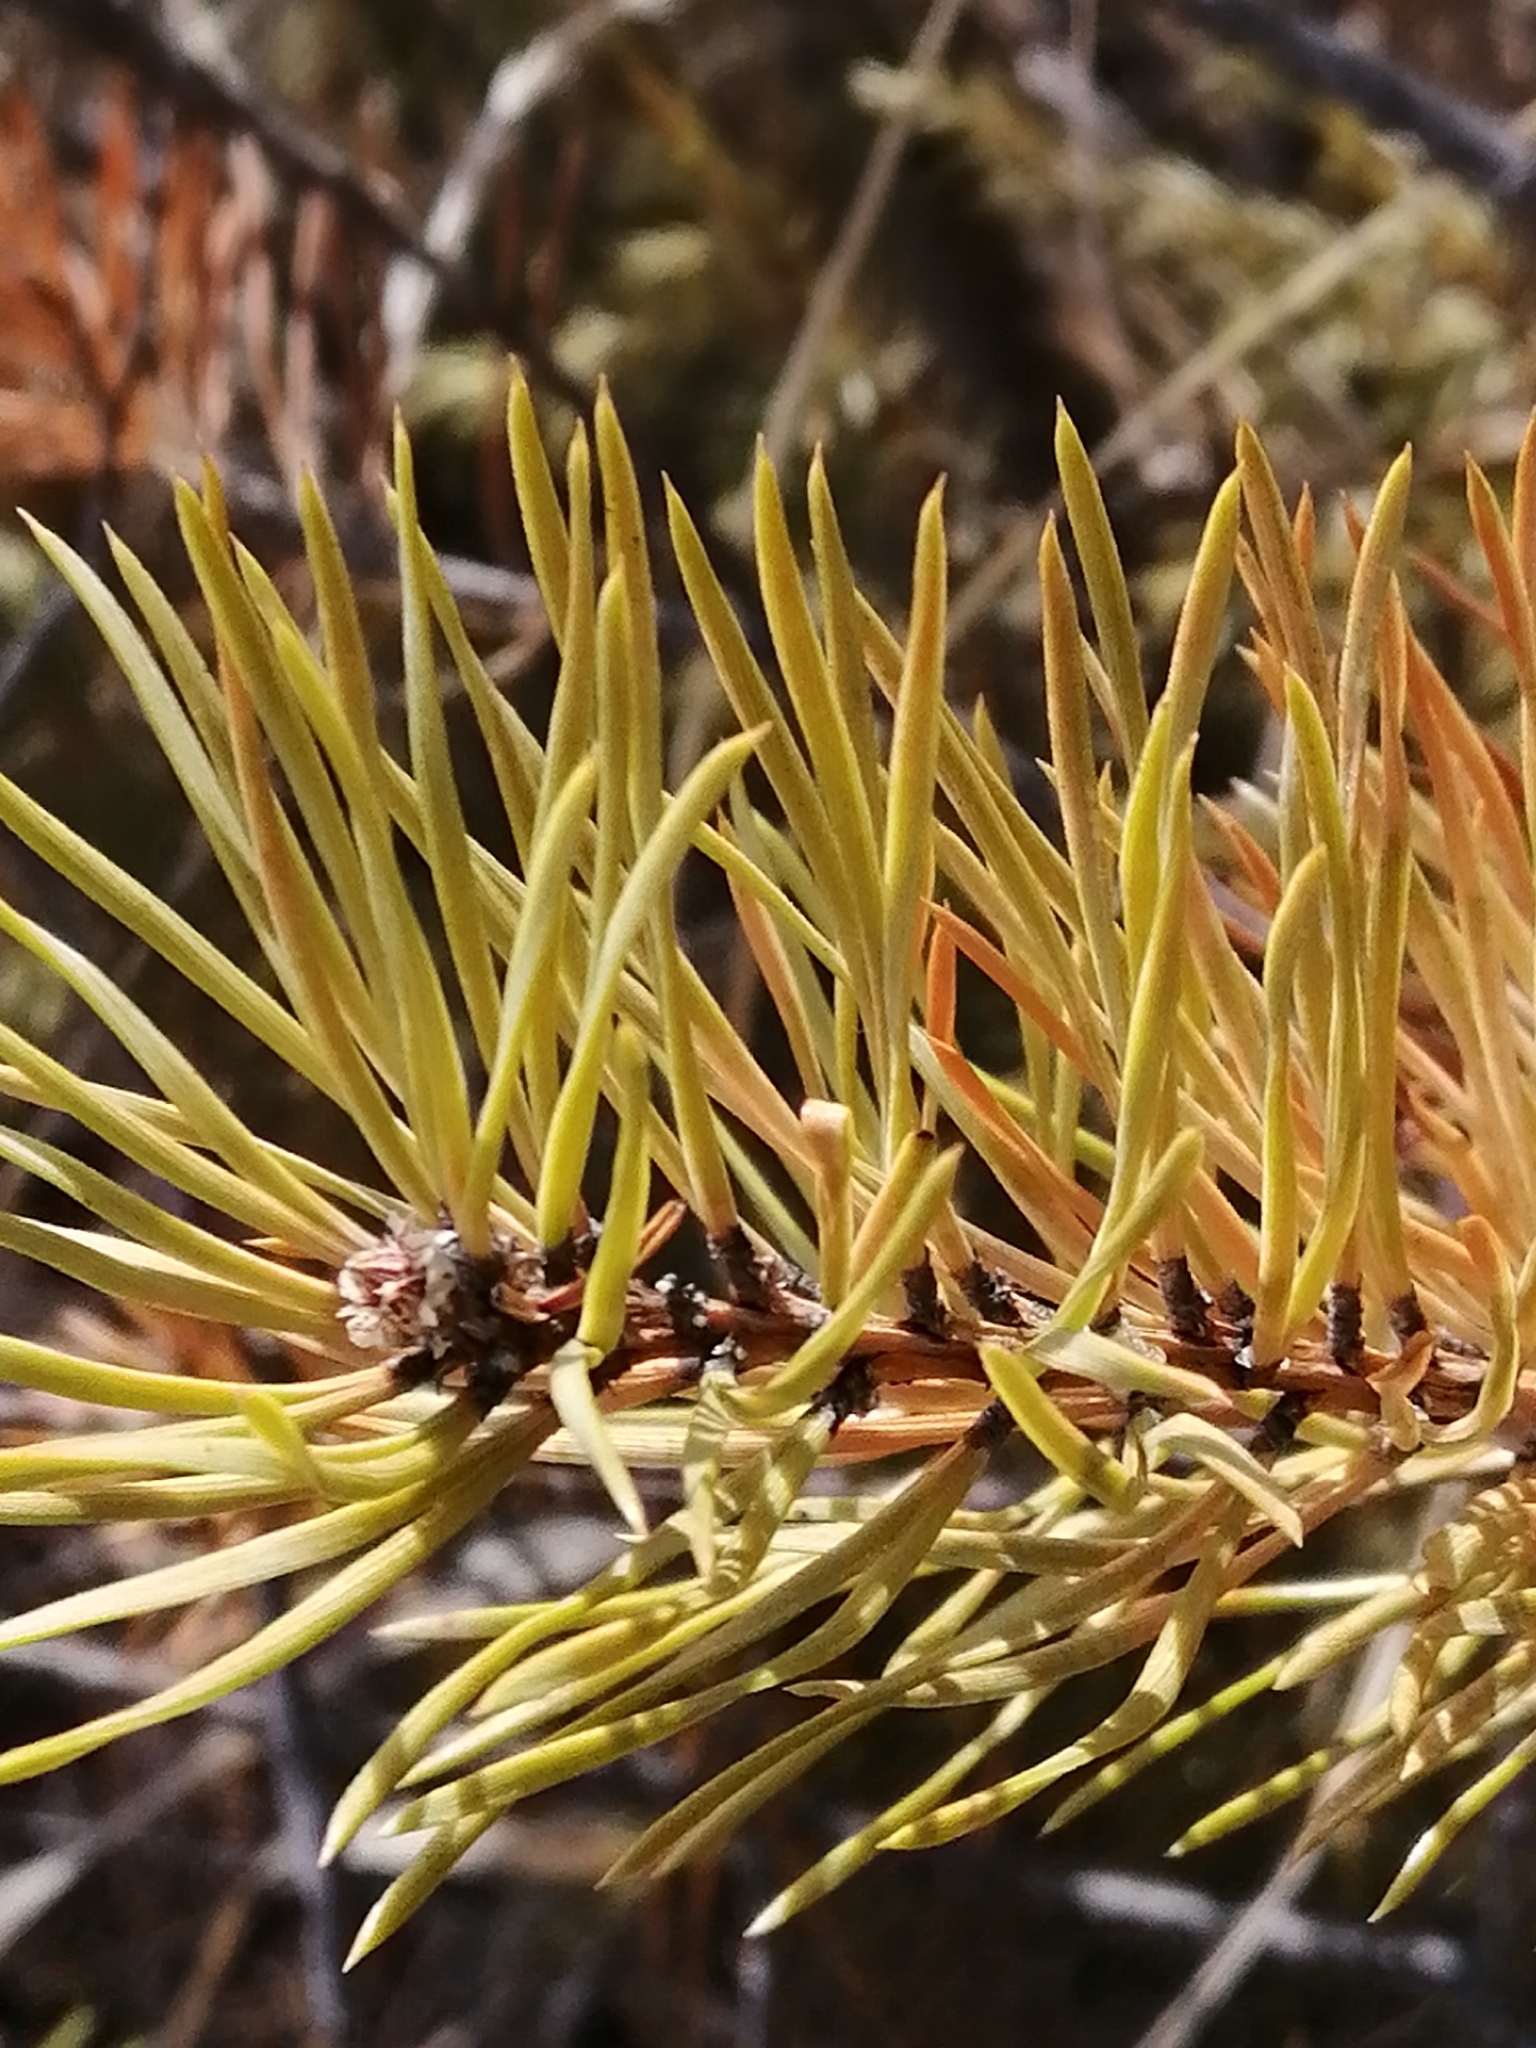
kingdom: Plantae
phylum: Tracheophyta
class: Pinopsida
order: Pinales
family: Pinaceae
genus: Pinus
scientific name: Pinus sylvestris
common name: Scots pine
